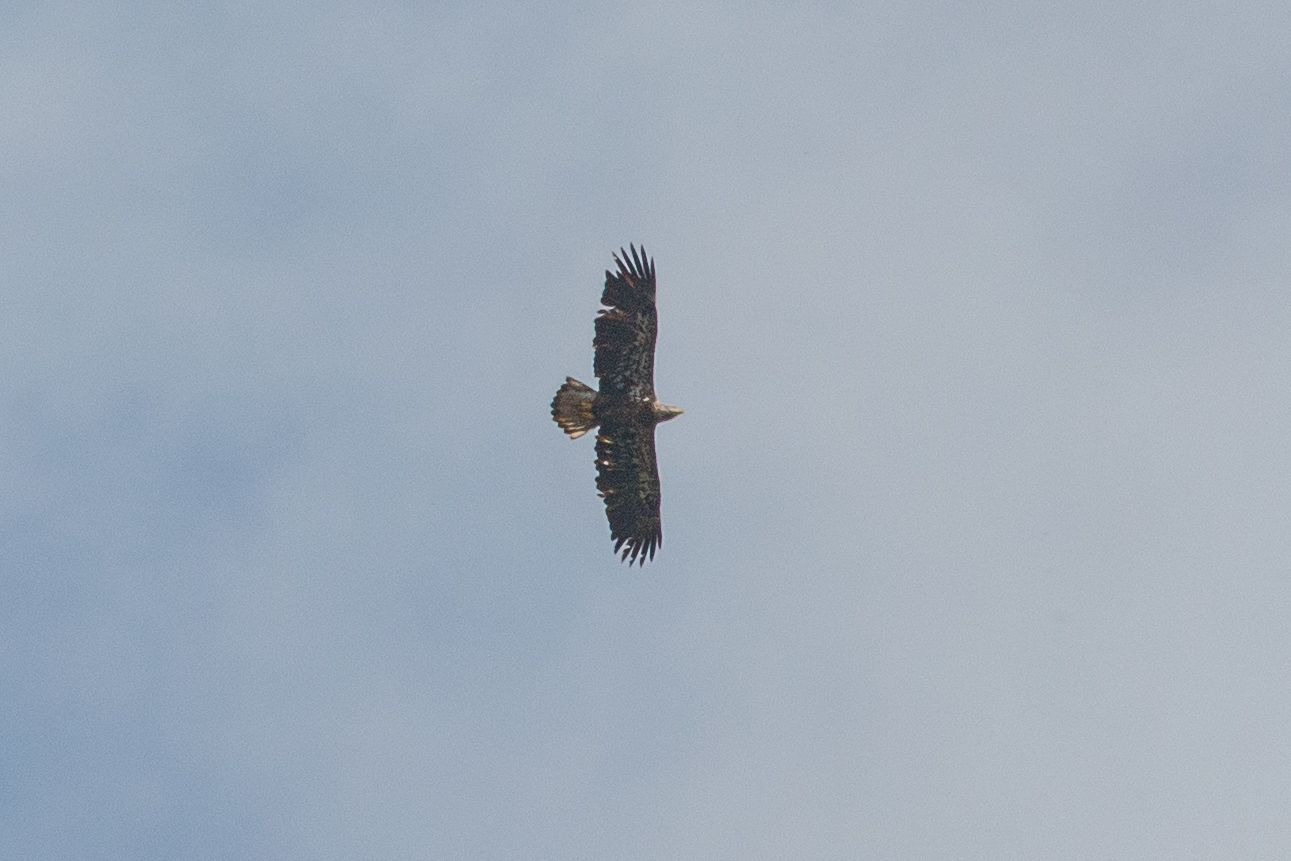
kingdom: Animalia
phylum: Chordata
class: Aves
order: Accipitriformes
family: Accipitridae
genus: Haliaeetus
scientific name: Haliaeetus leucocephalus
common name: Bald eagle
